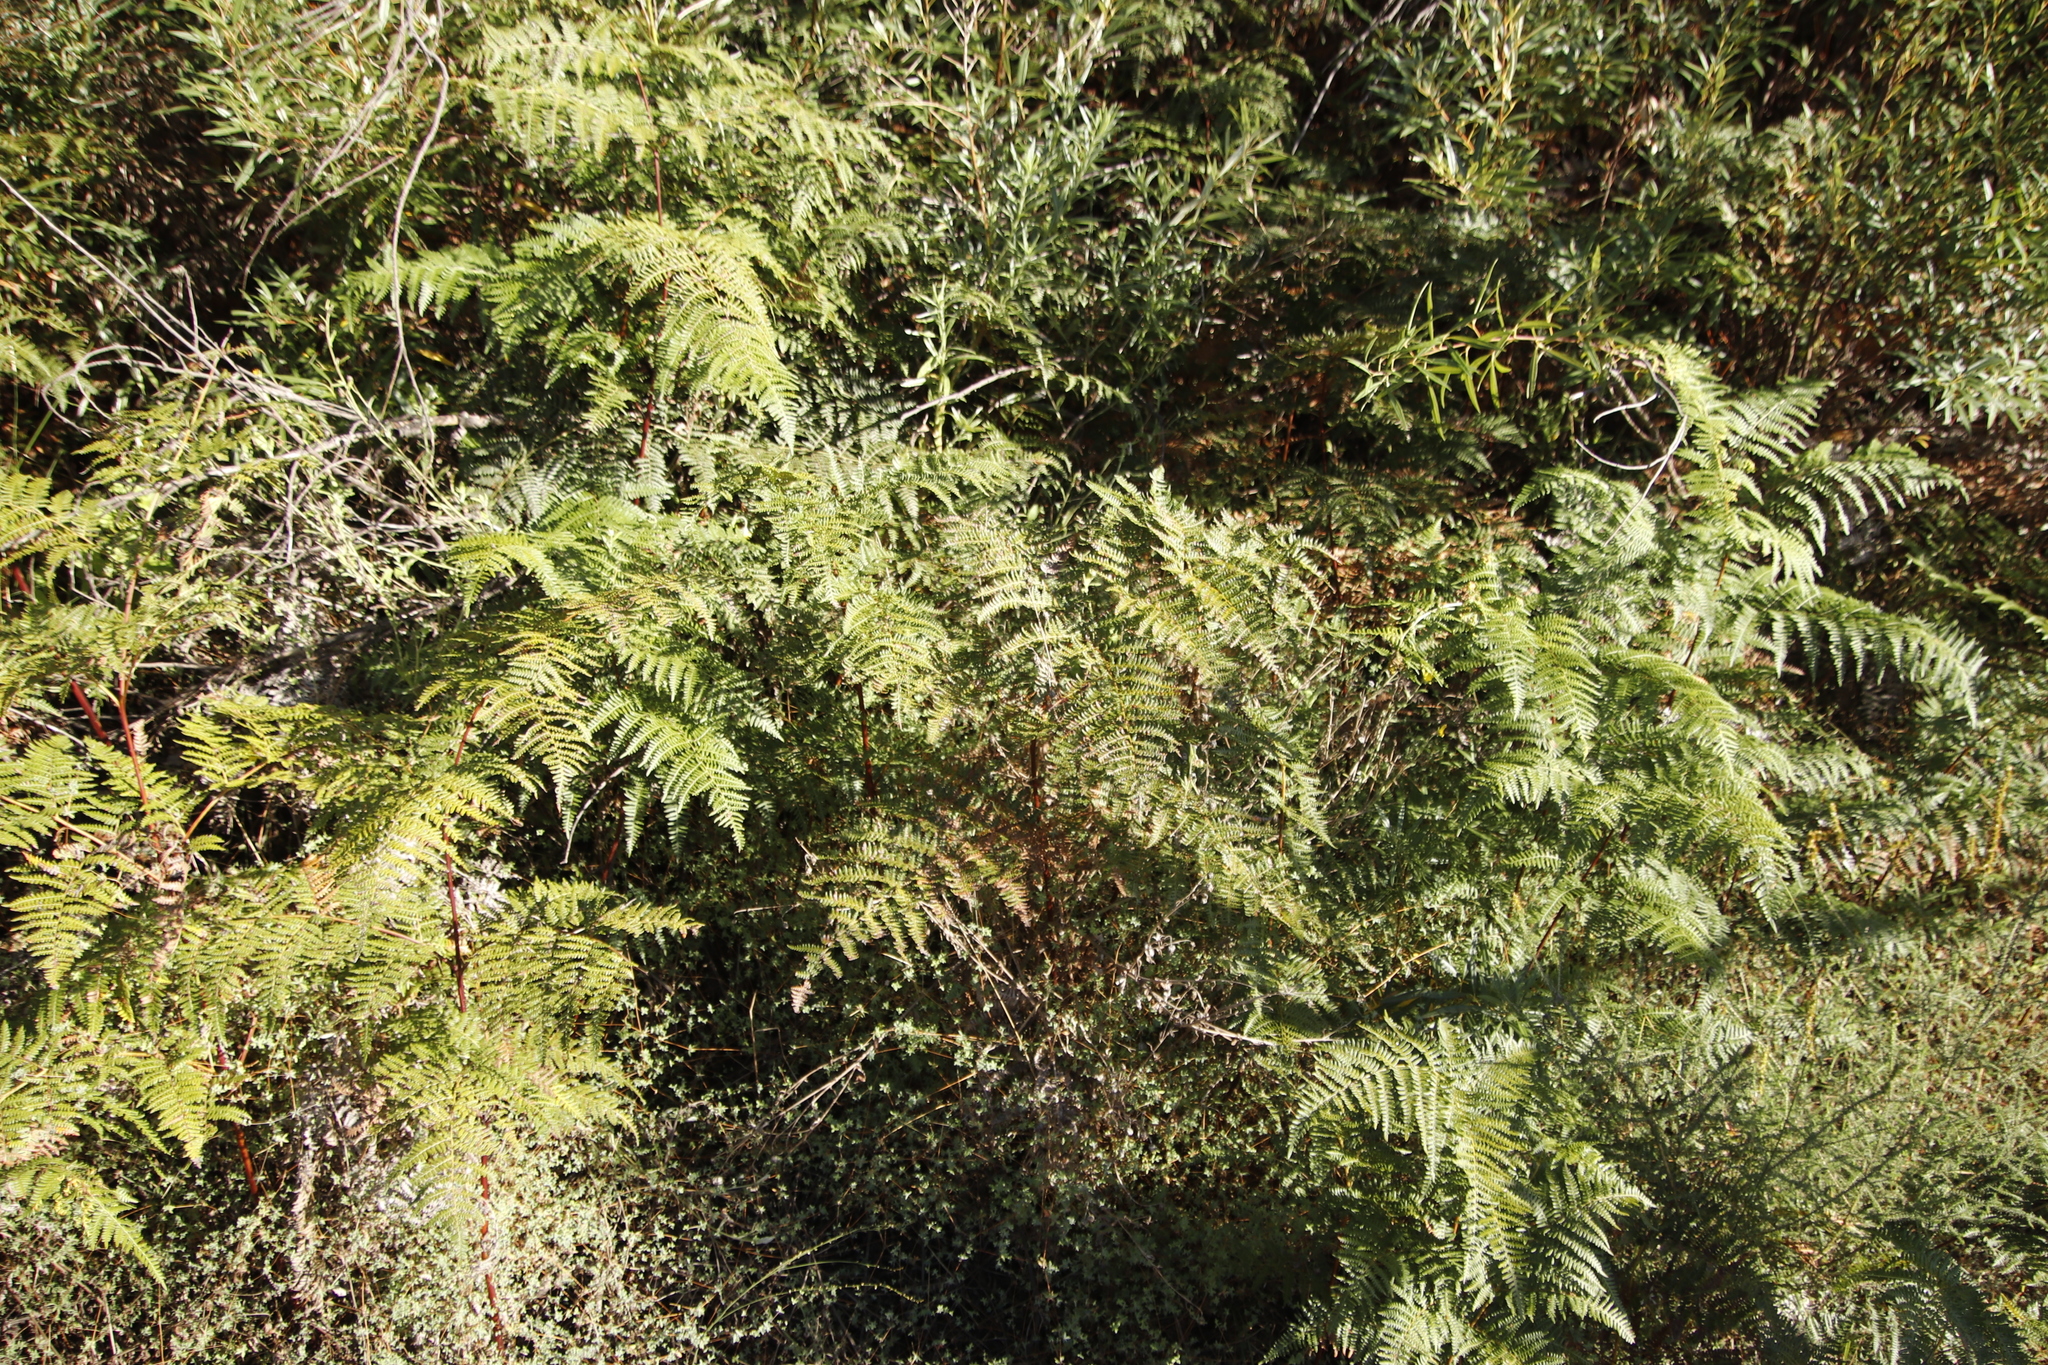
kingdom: Plantae
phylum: Tracheophyta
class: Polypodiopsida
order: Polypodiales
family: Dennstaedtiaceae
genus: Pteridium
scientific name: Pteridium aquilinum
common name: Bracken
